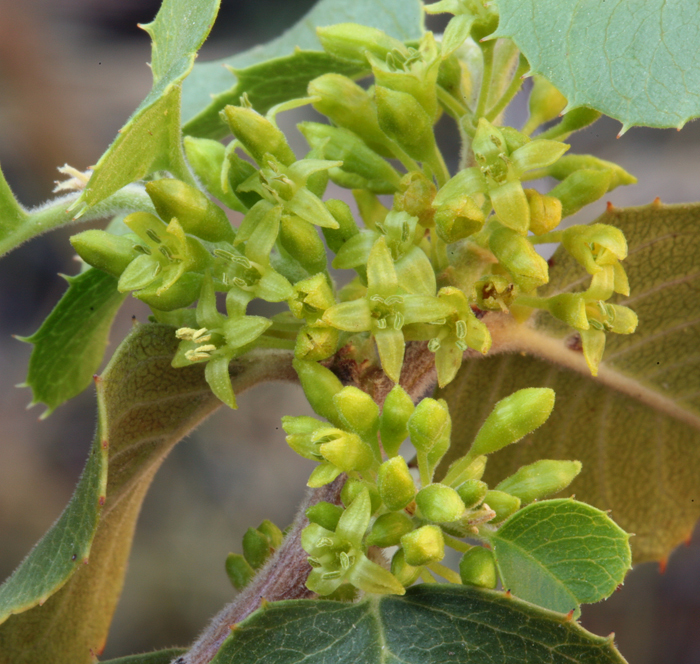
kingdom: Plantae
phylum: Tracheophyta
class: Magnoliopsida
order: Rosales
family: Rhamnaceae
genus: Endotropis
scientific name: Endotropis crocea
